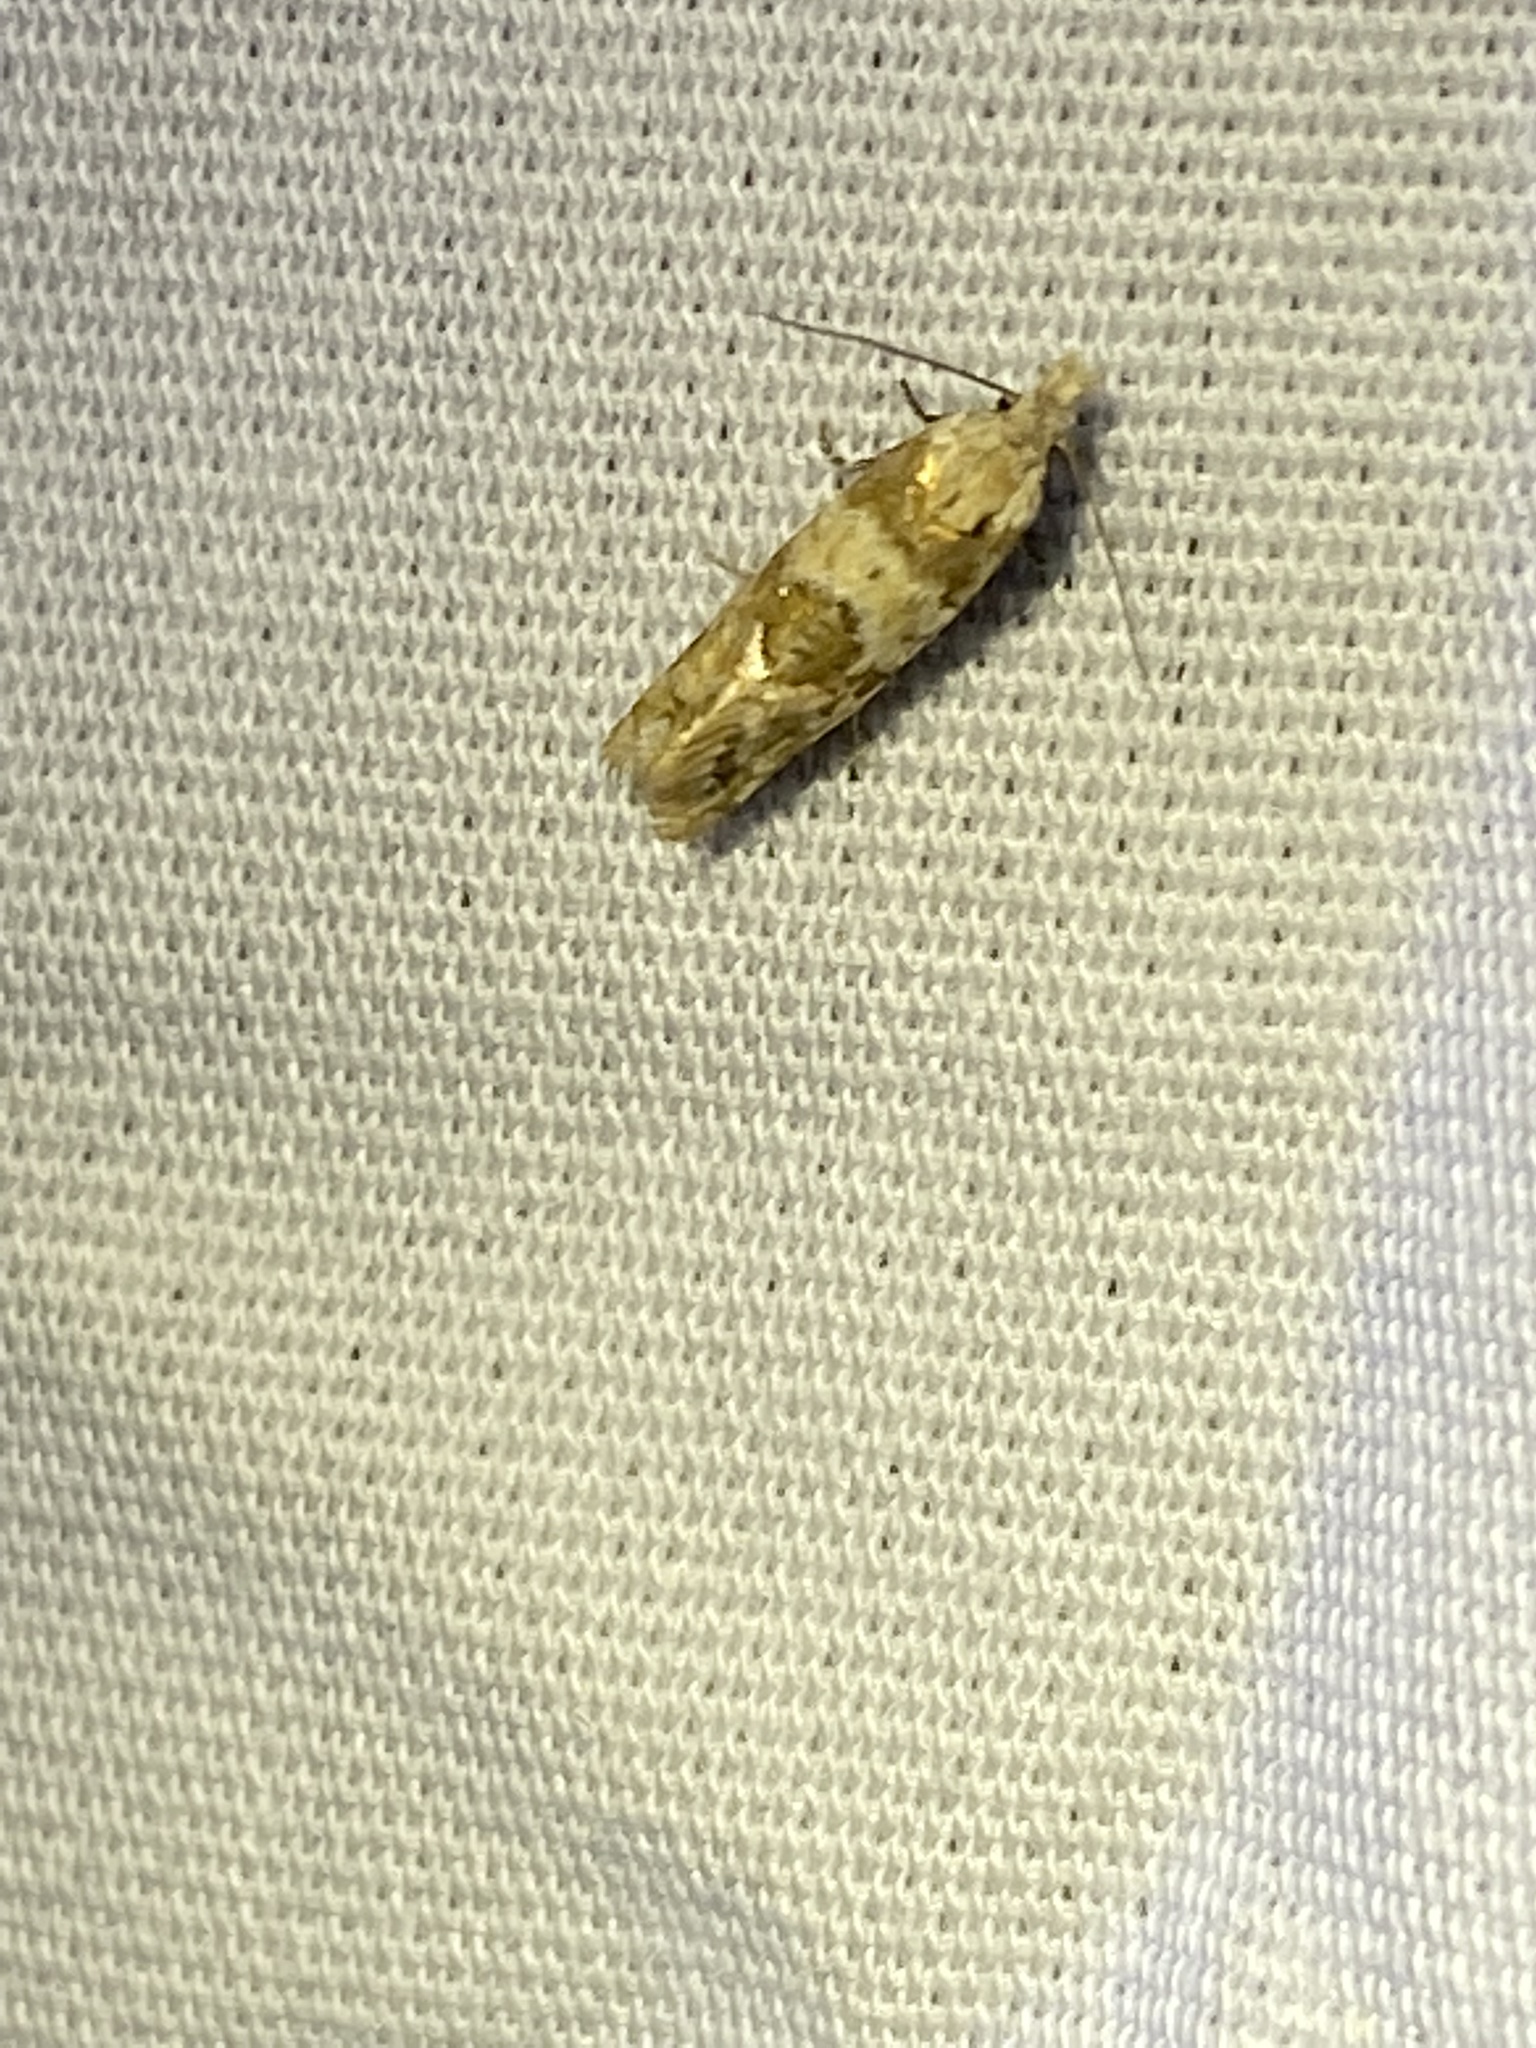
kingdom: Animalia
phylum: Arthropoda
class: Insecta
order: Lepidoptera
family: Tortricidae
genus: Aethes
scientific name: Aethes argentilimitana
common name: Silver-bordered aethes
